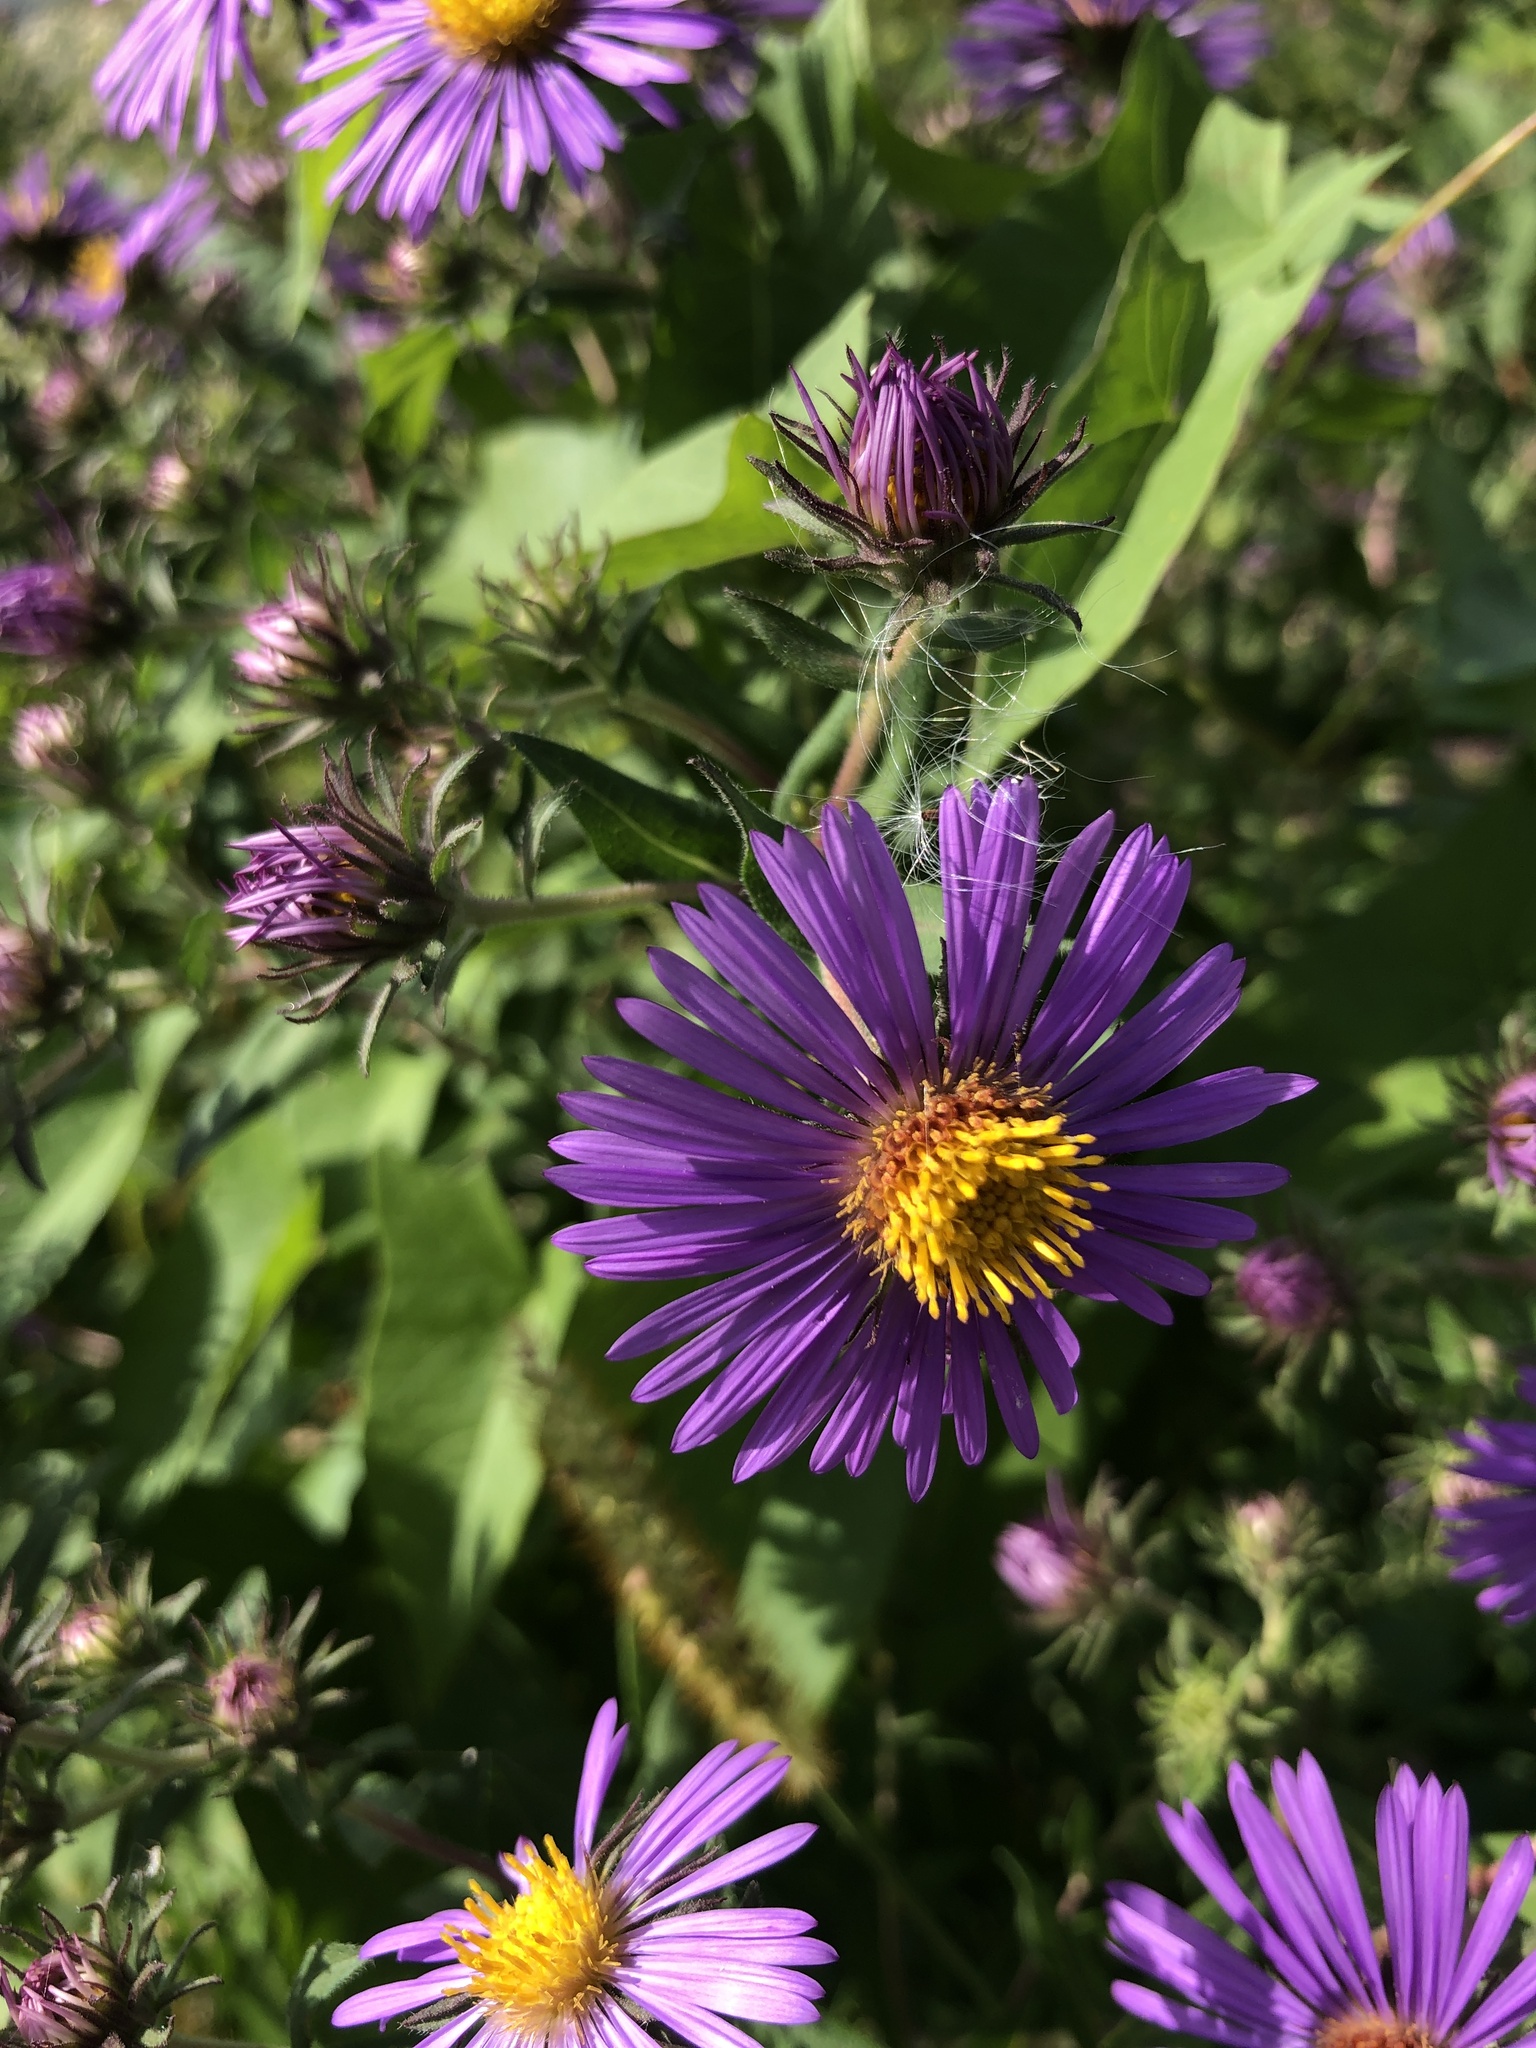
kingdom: Plantae
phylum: Tracheophyta
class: Magnoliopsida
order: Asterales
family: Asteraceae
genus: Symphyotrichum
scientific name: Symphyotrichum novae-angliae
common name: Michaelmas daisy
